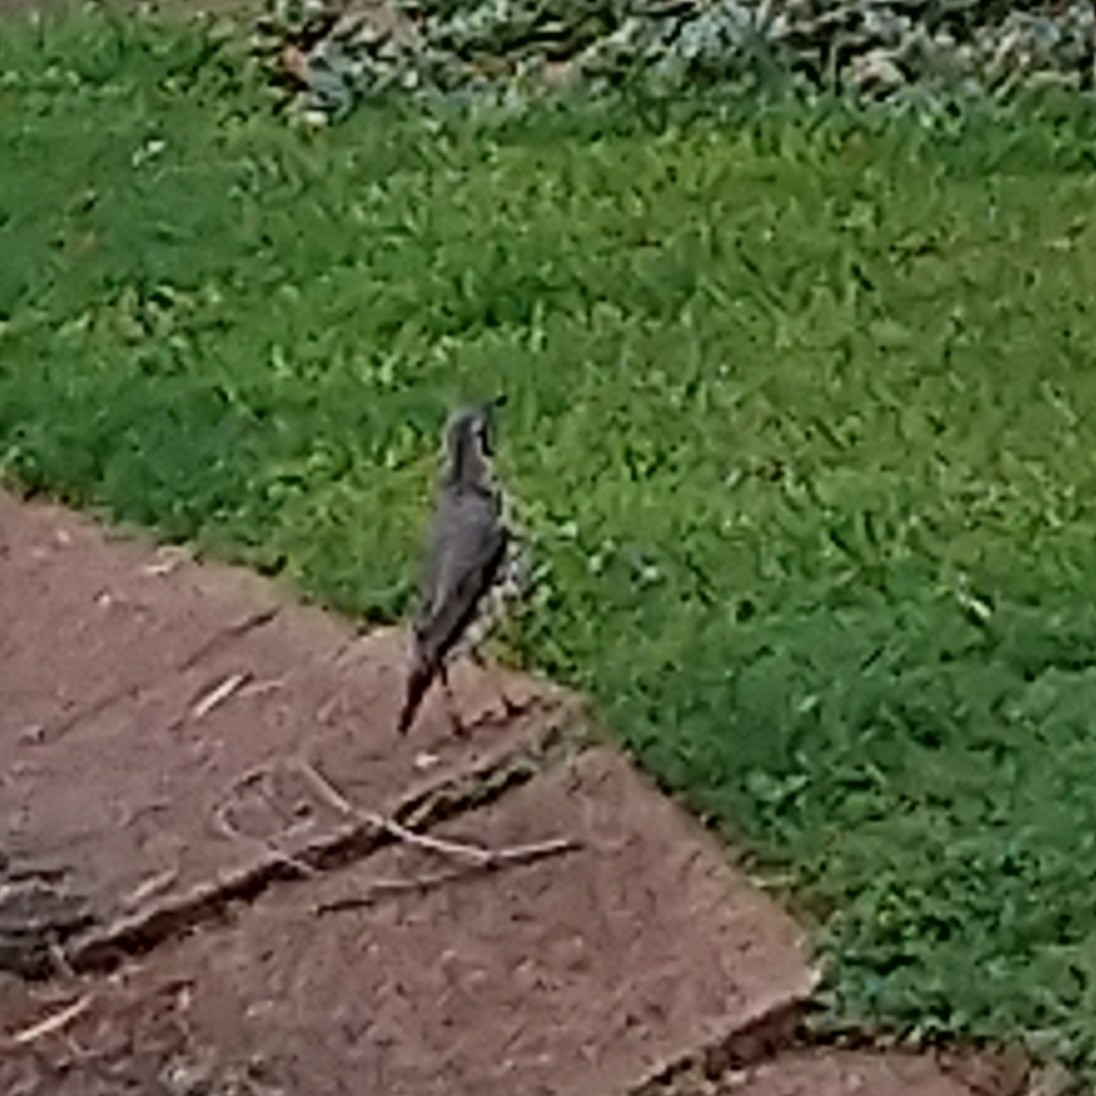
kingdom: Animalia
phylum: Chordata
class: Aves
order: Passeriformes
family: Turdidae
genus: Psophocichla
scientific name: Psophocichla litsitsirupa
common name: Groundscraper thrush
